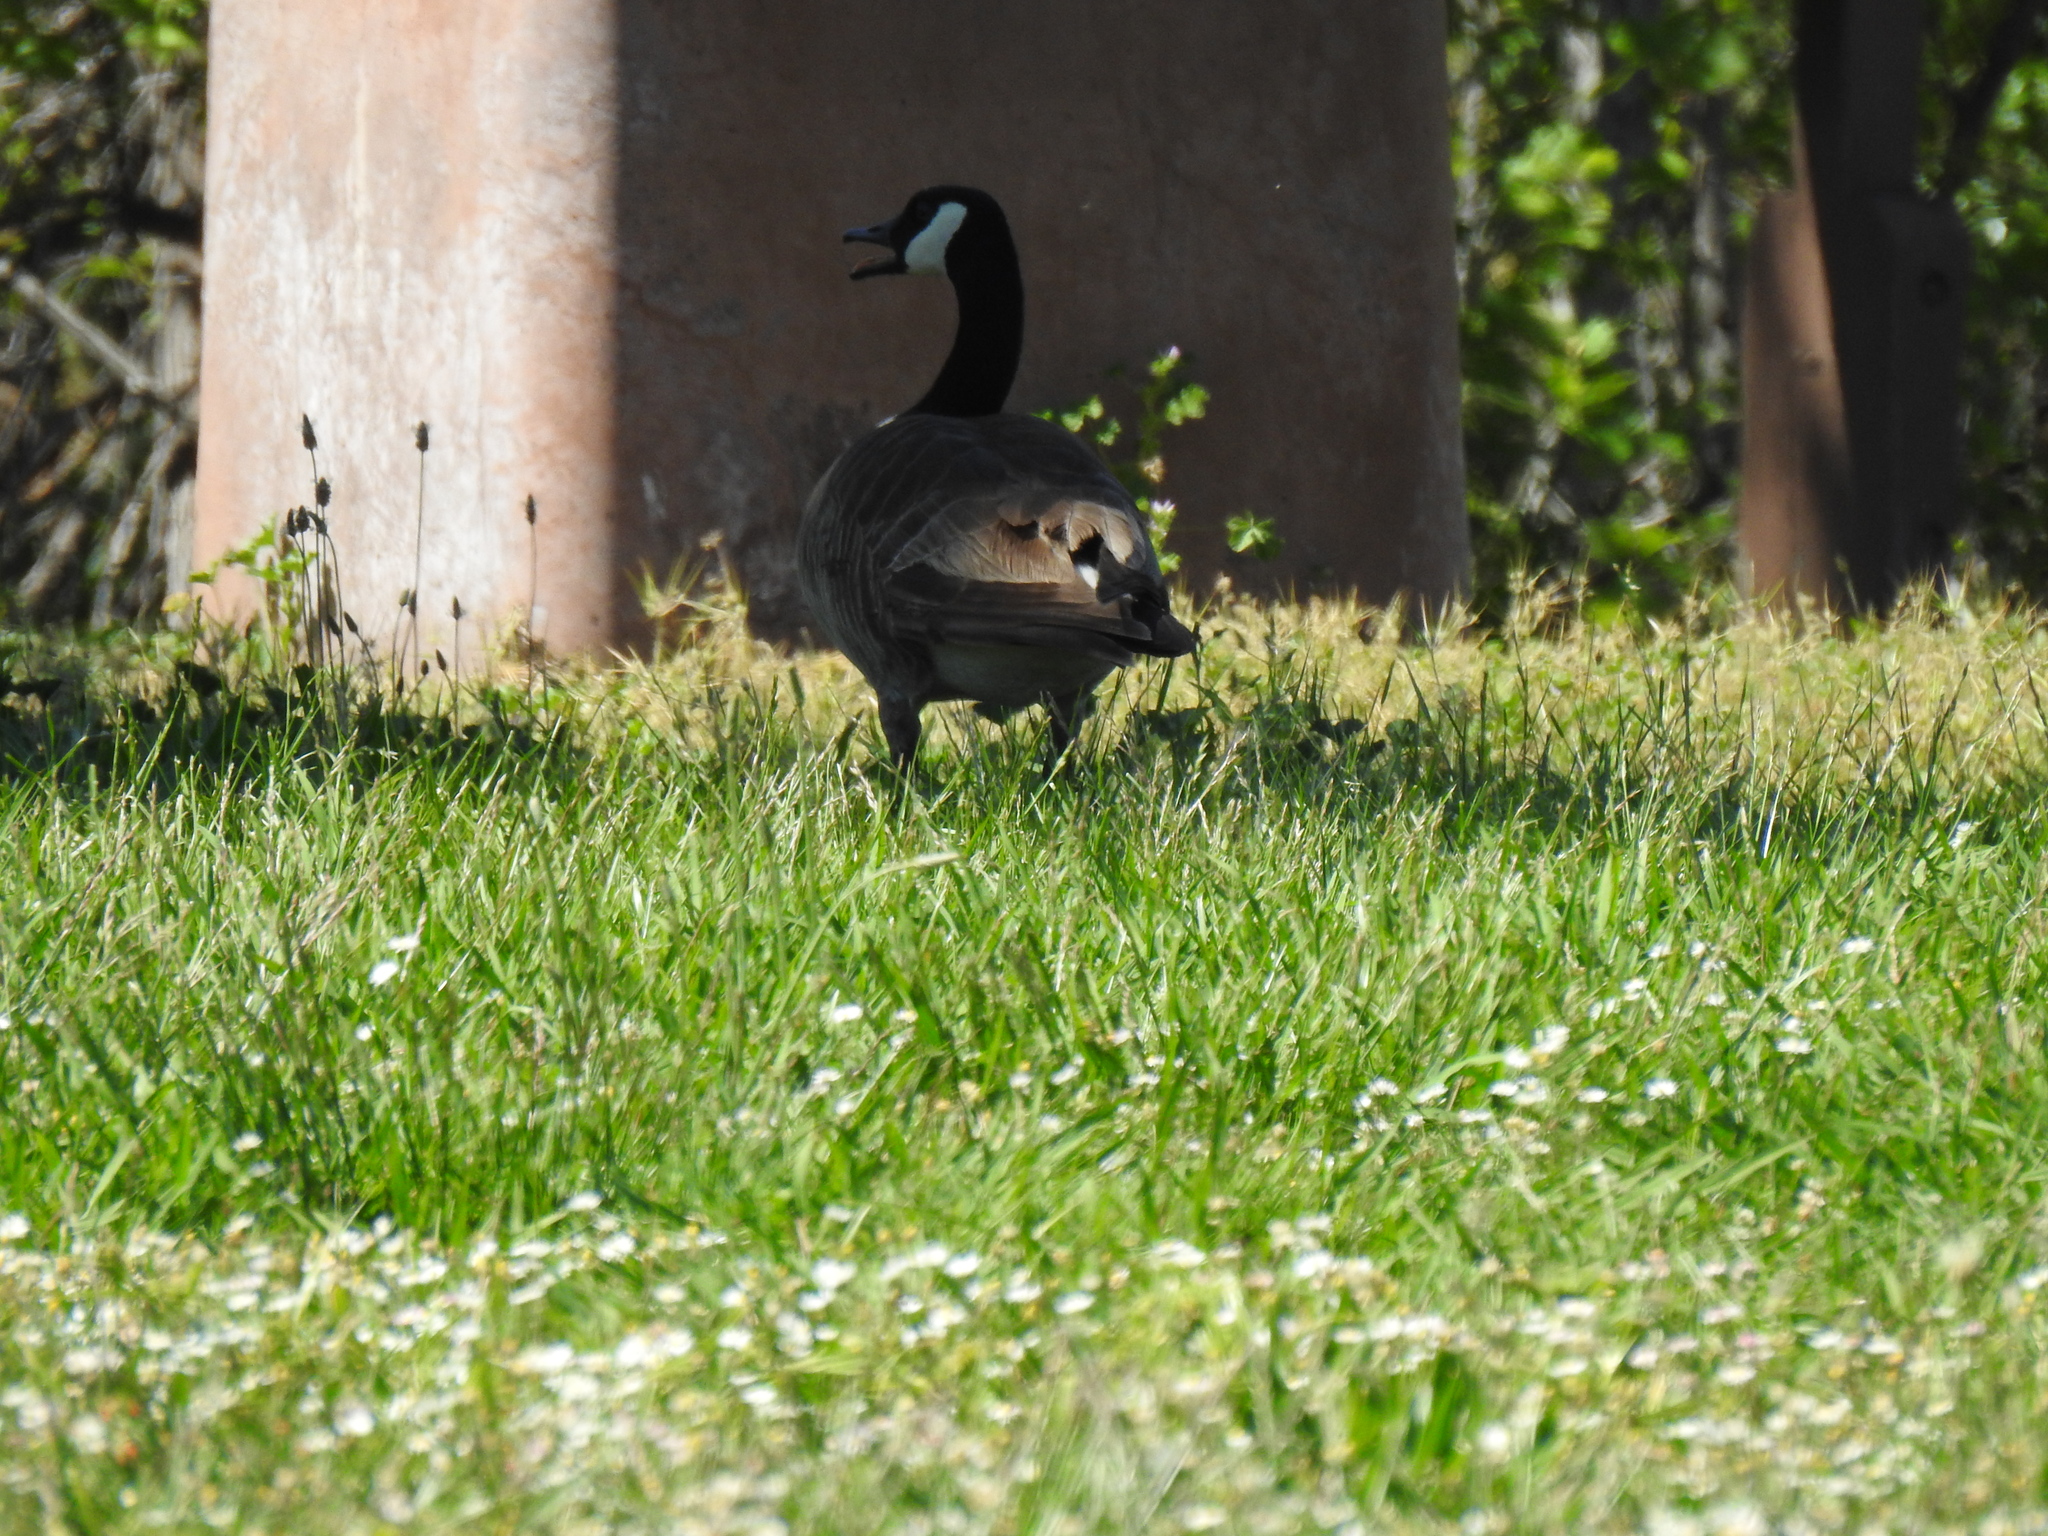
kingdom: Animalia
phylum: Chordata
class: Aves
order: Anseriformes
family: Anatidae
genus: Branta
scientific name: Branta canadensis
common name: Canada goose
